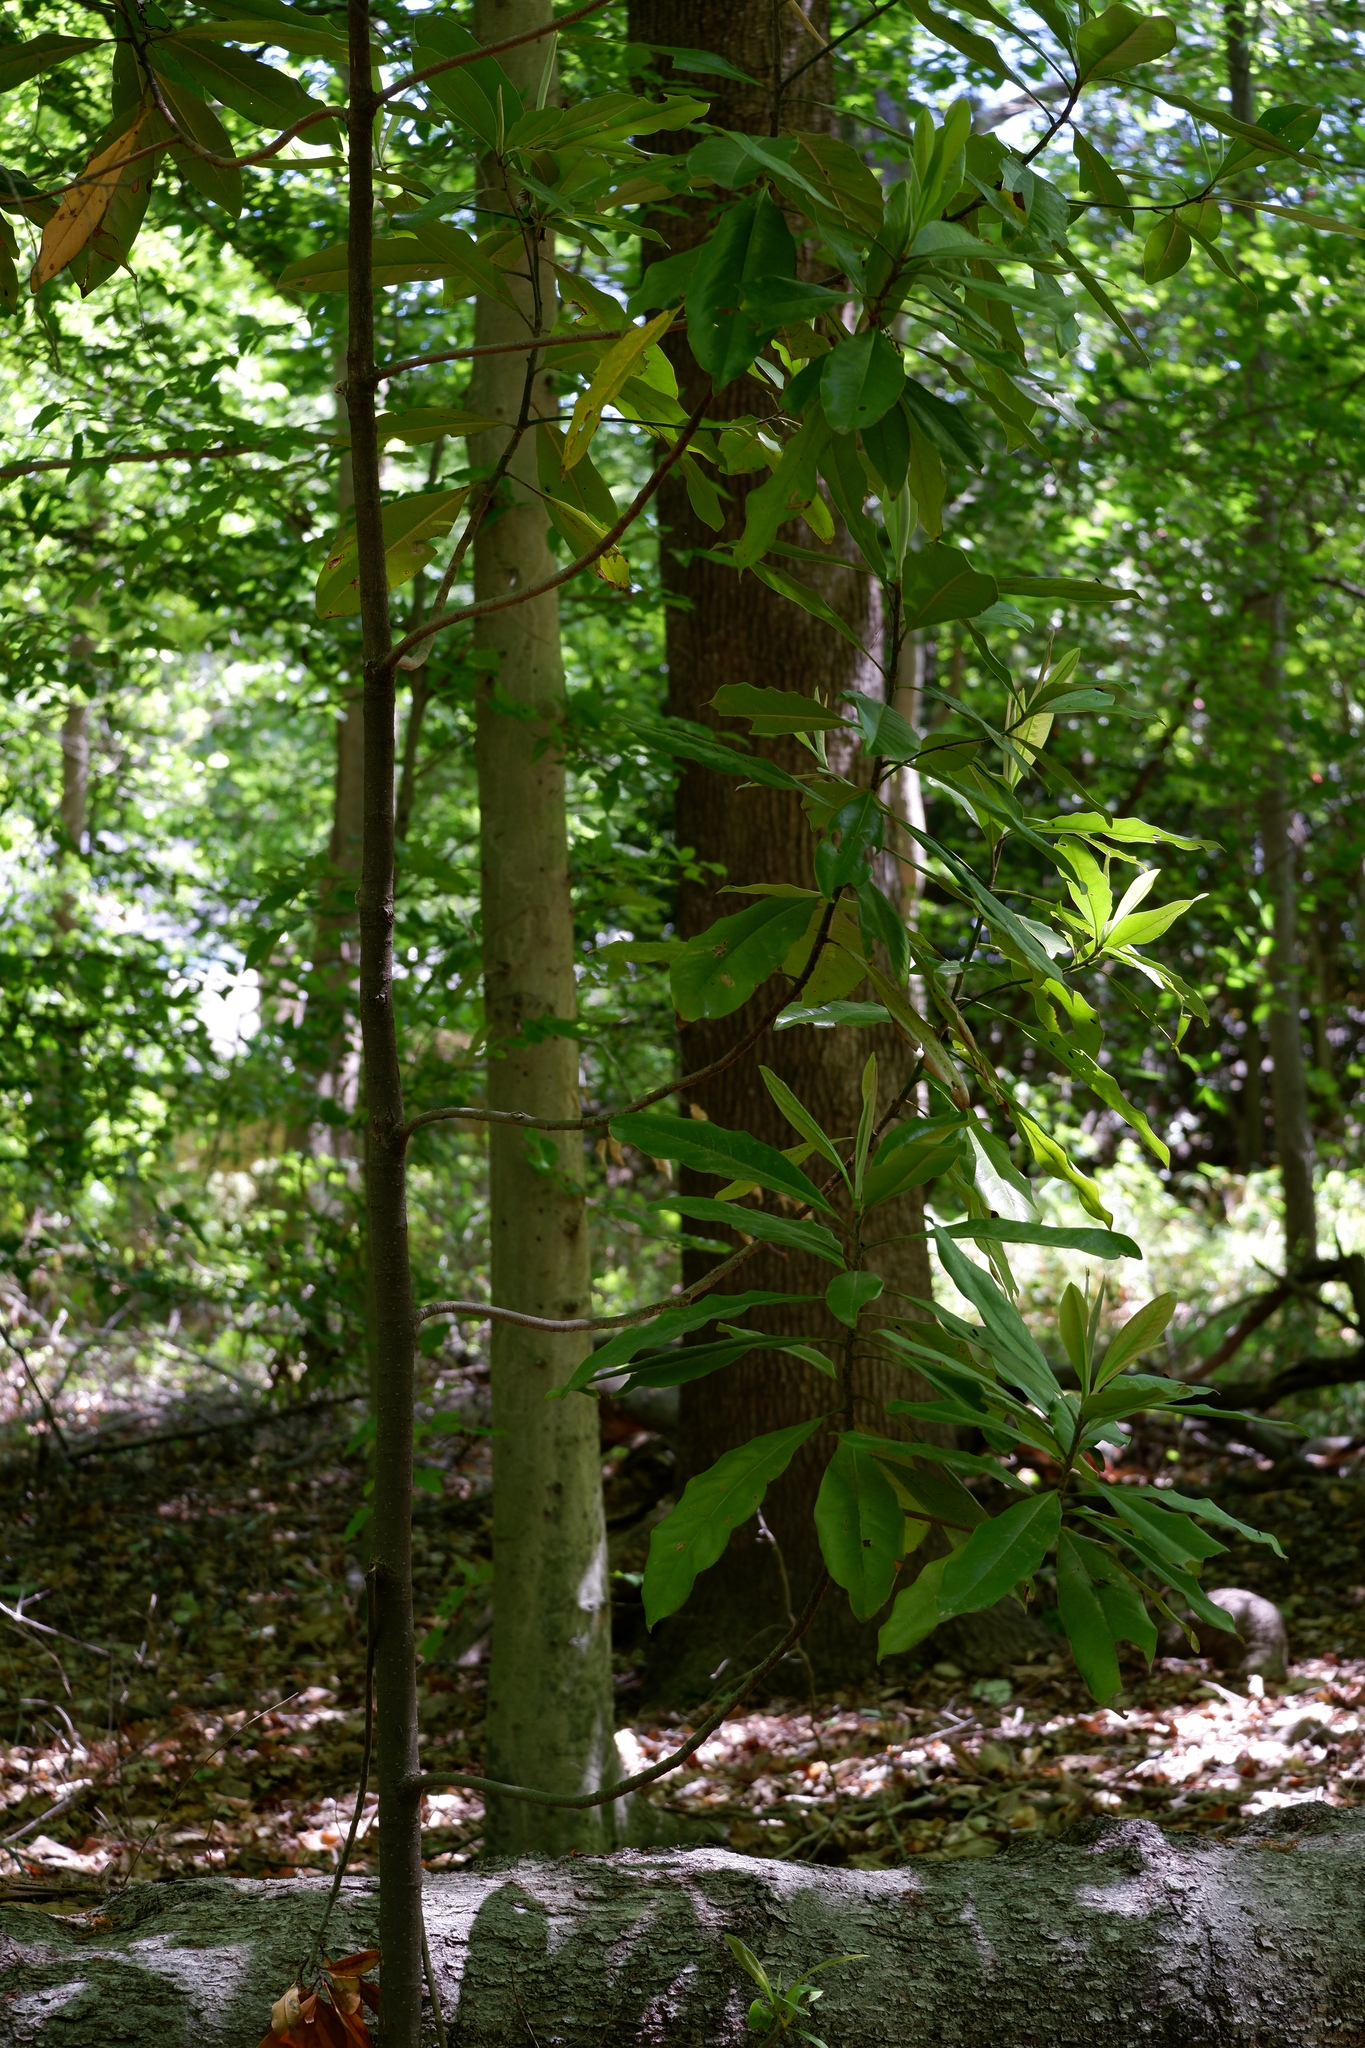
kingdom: Plantae
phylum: Tracheophyta
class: Magnoliopsida
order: Magnoliales
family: Magnoliaceae
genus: Magnolia
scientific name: Magnolia grandiflora
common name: Southern magnolia
